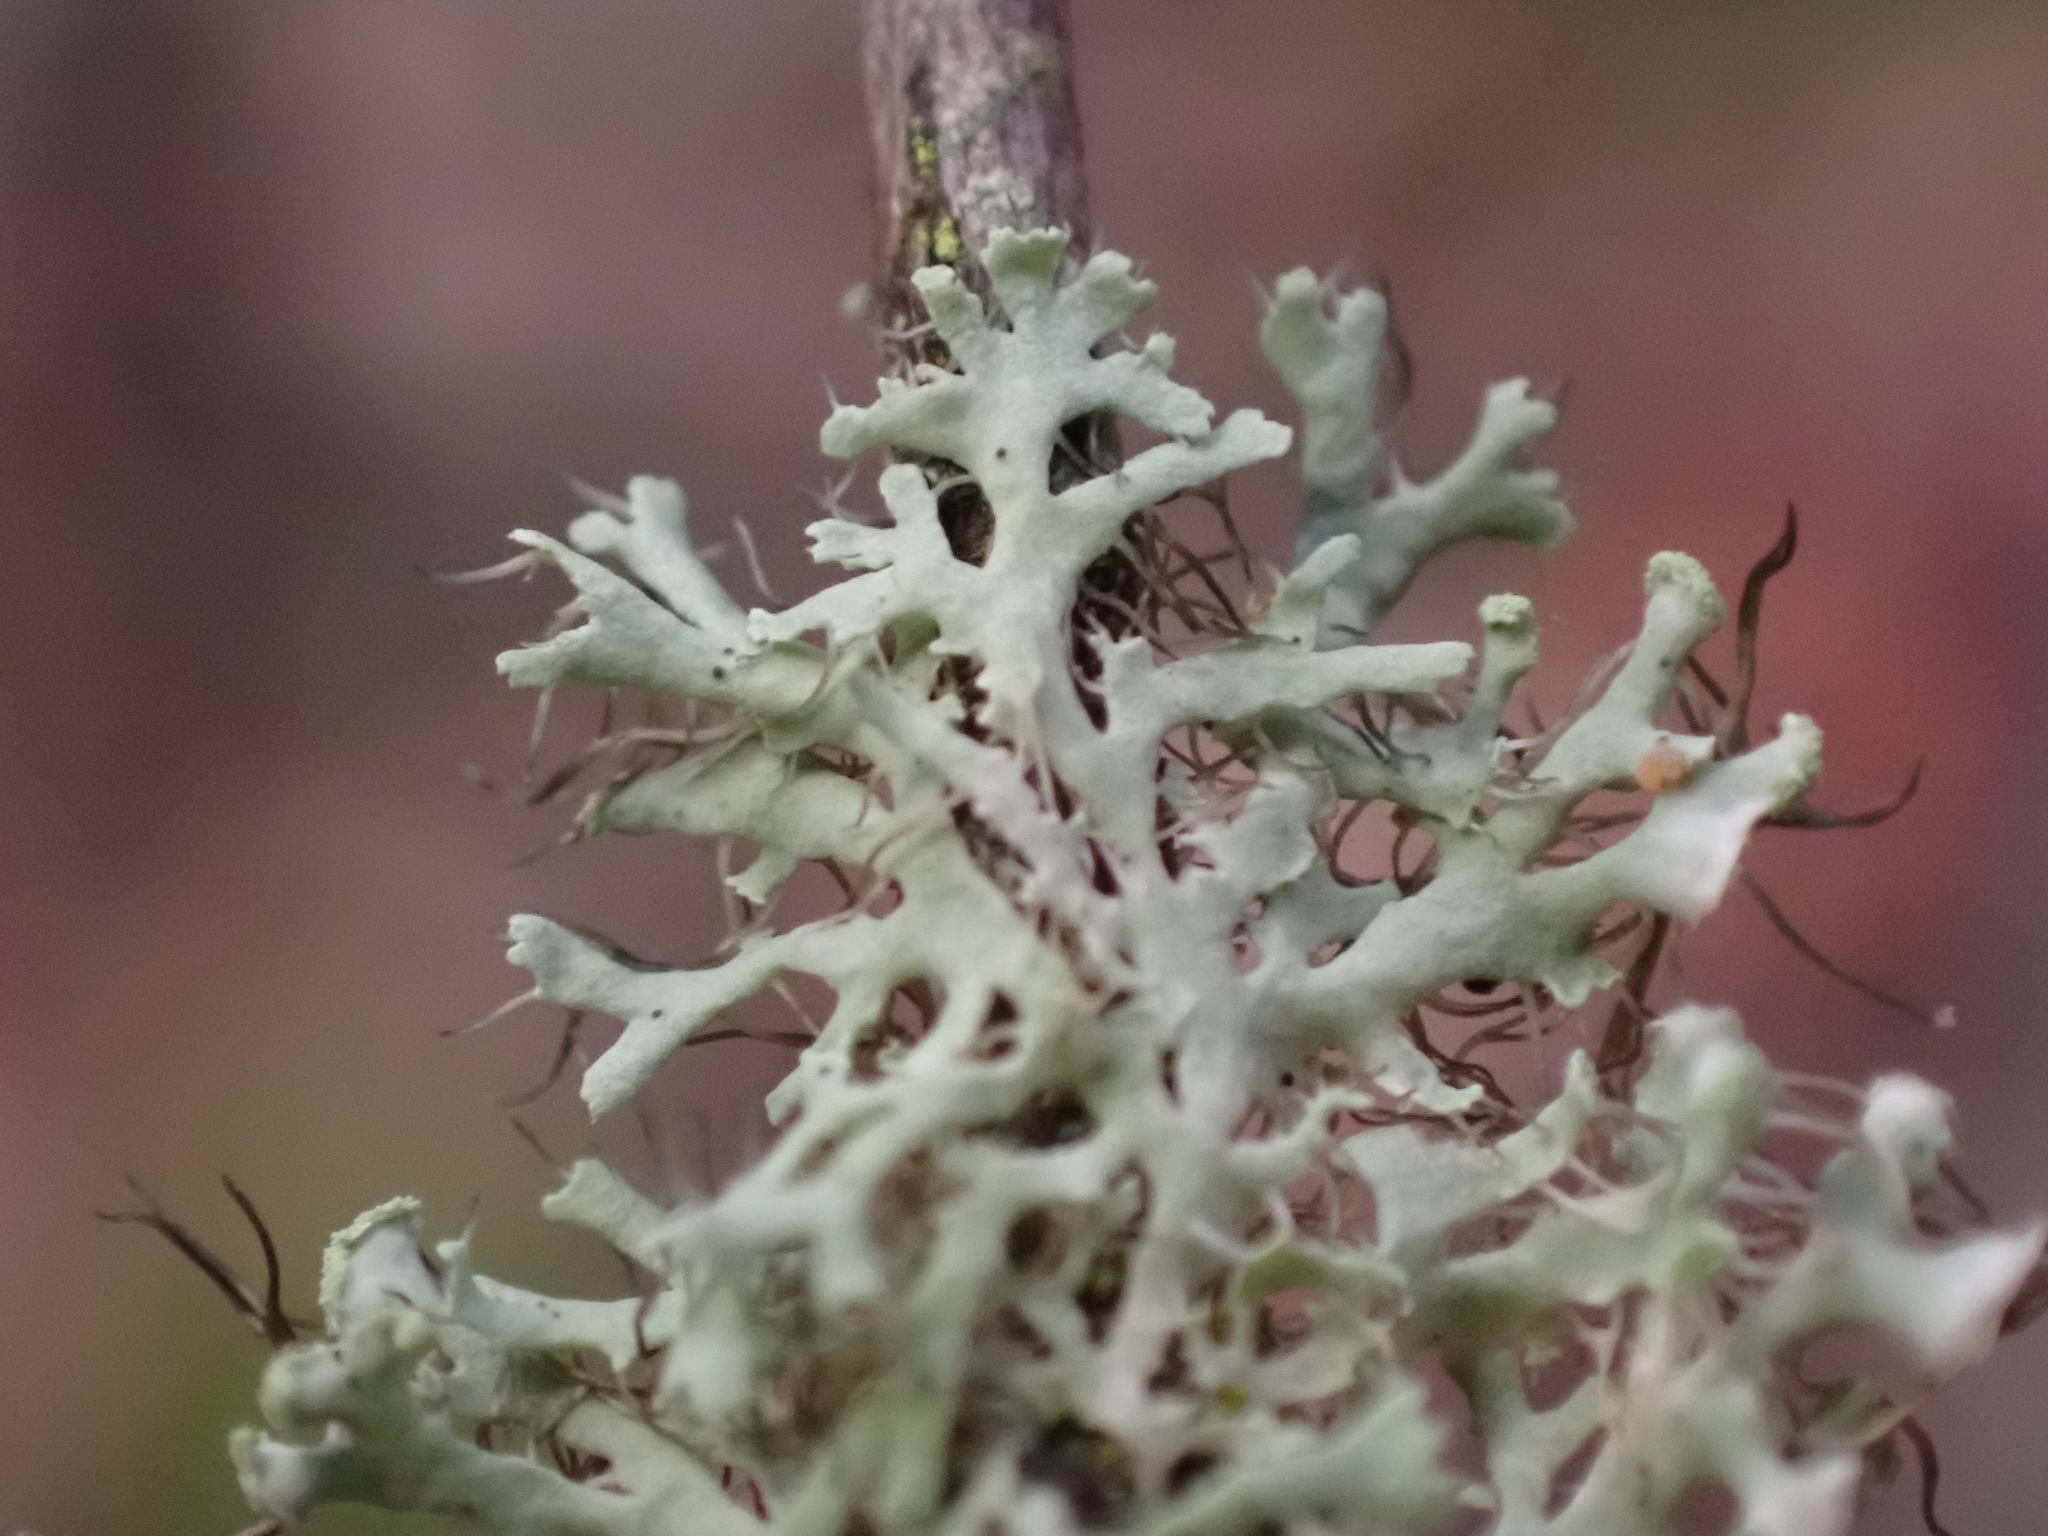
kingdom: Fungi
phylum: Ascomycota
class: Lecanoromycetes
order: Caliciales
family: Physciaceae
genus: Physcia
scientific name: Physcia tenella
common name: Fringed rosette lichen
